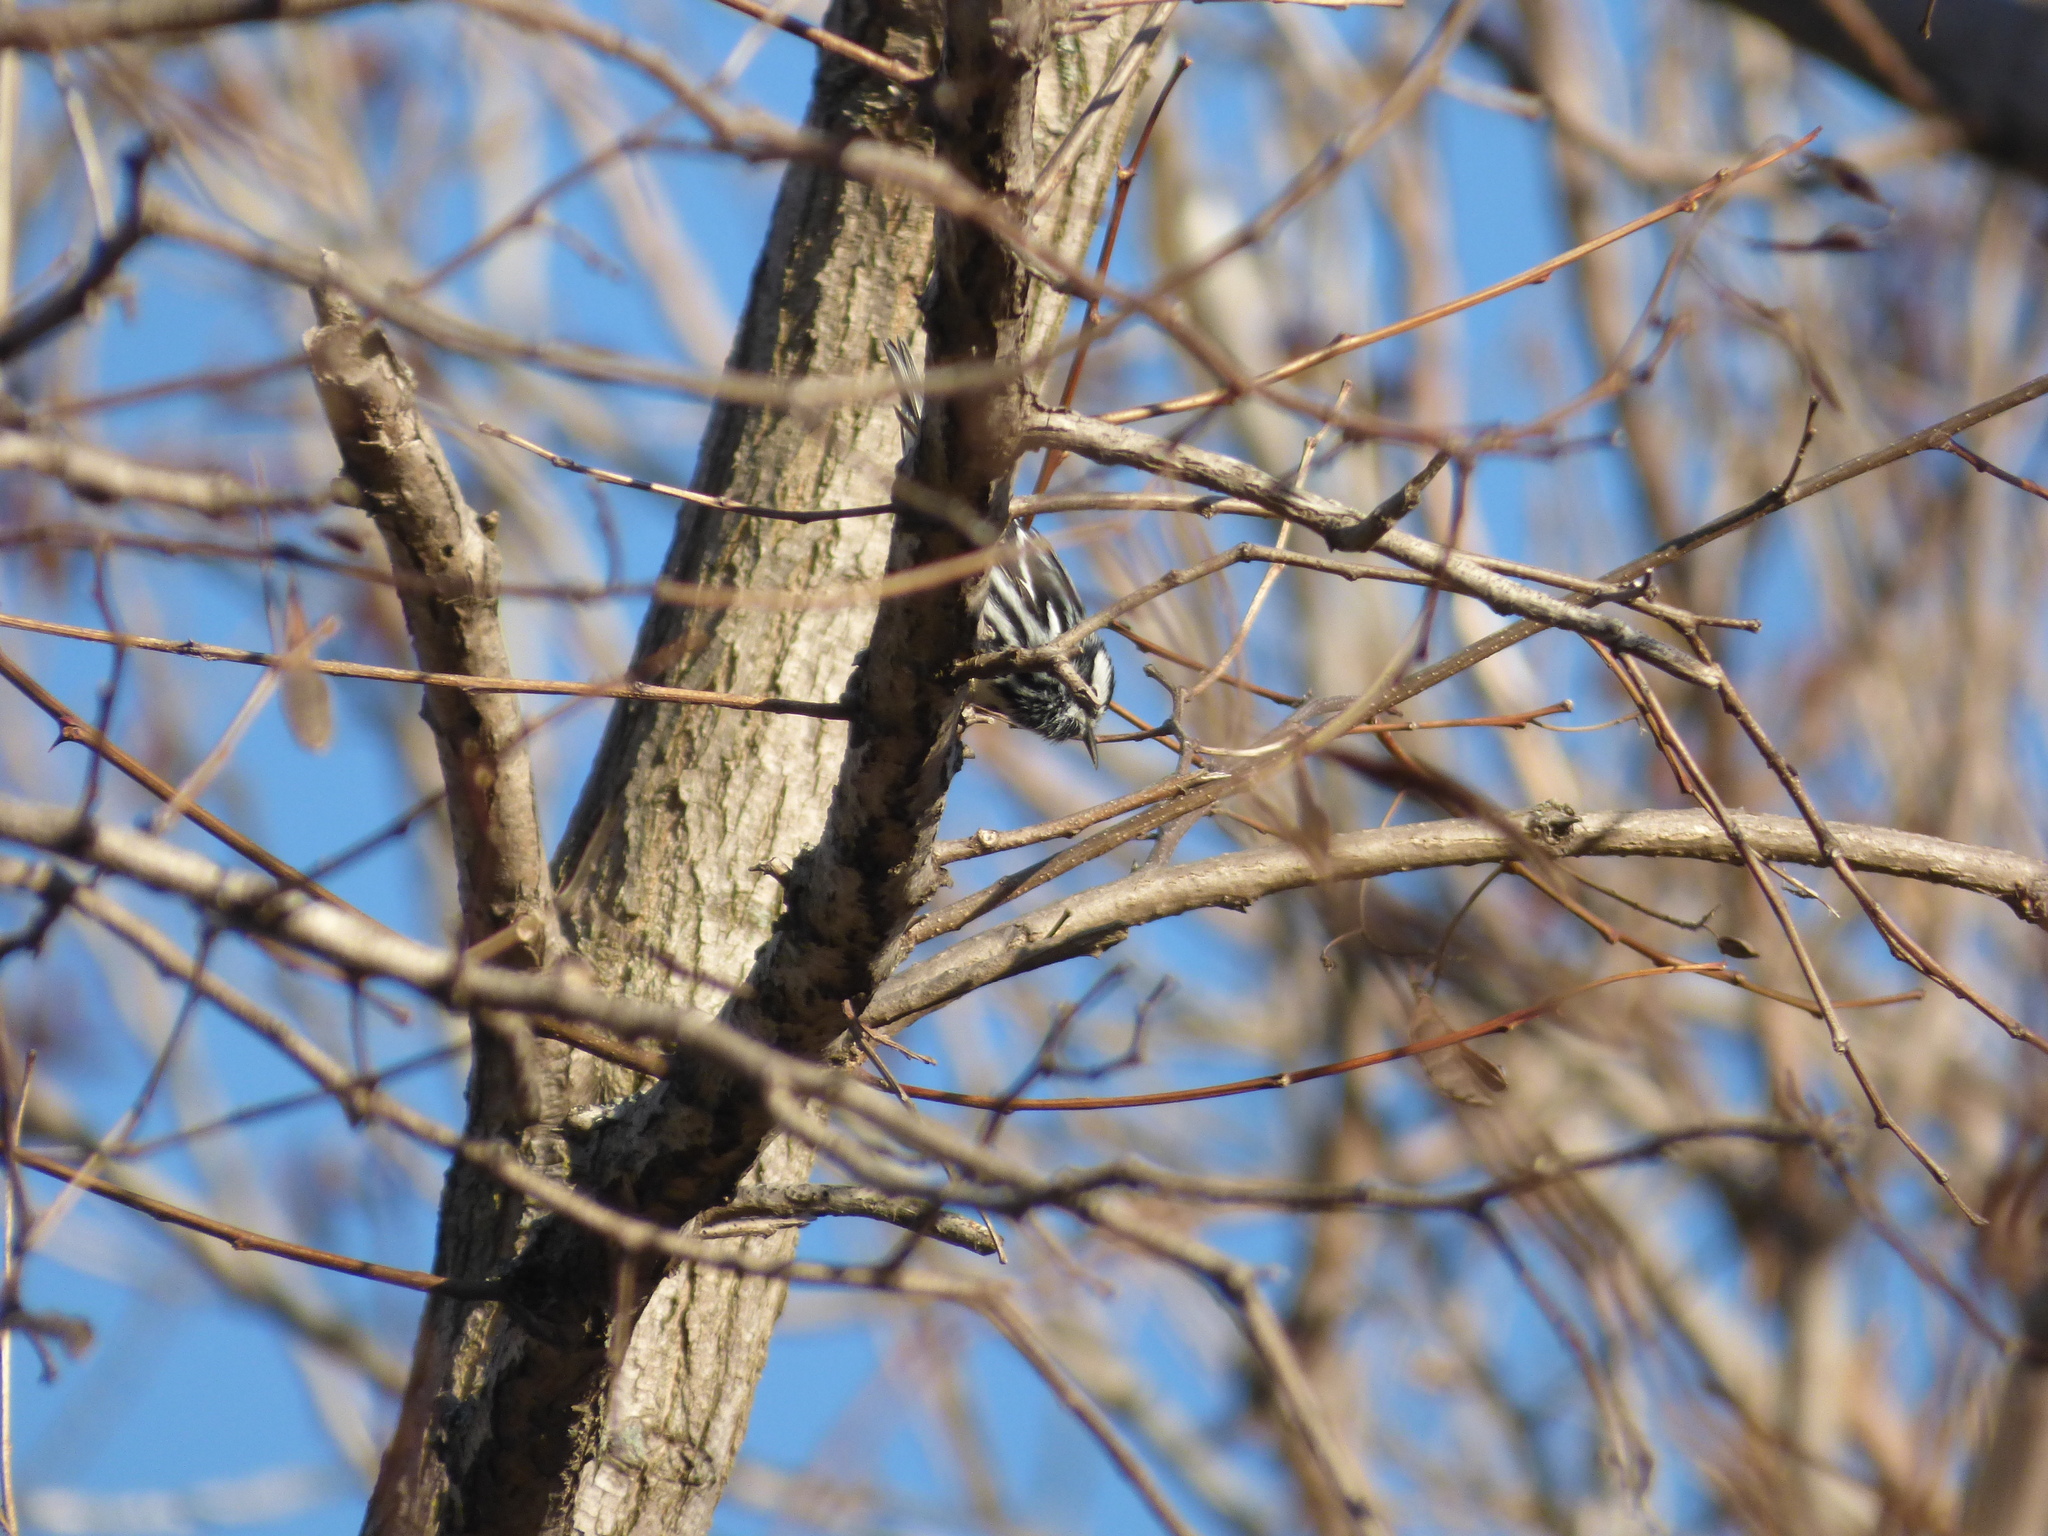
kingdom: Animalia
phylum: Chordata
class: Aves
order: Passeriformes
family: Parulidae
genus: Mniotilta
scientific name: Mniotilta varia
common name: Black-and-white warbler
